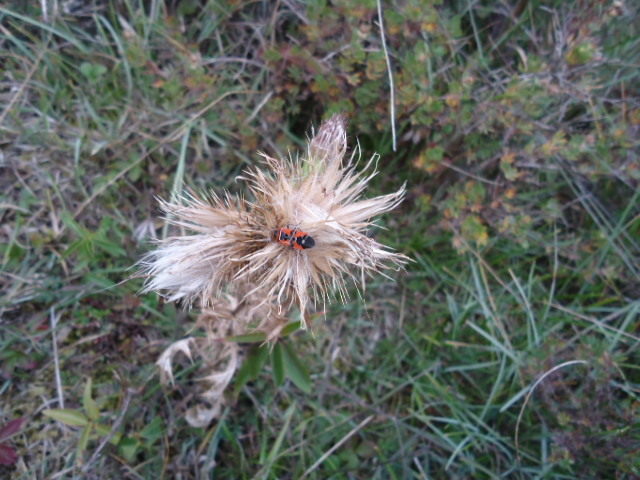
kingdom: Animalia
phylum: Arthropoda
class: Insecta
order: Hemiptera
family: Lygaeidae
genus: Lygaeus
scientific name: Lygaeus equestris
